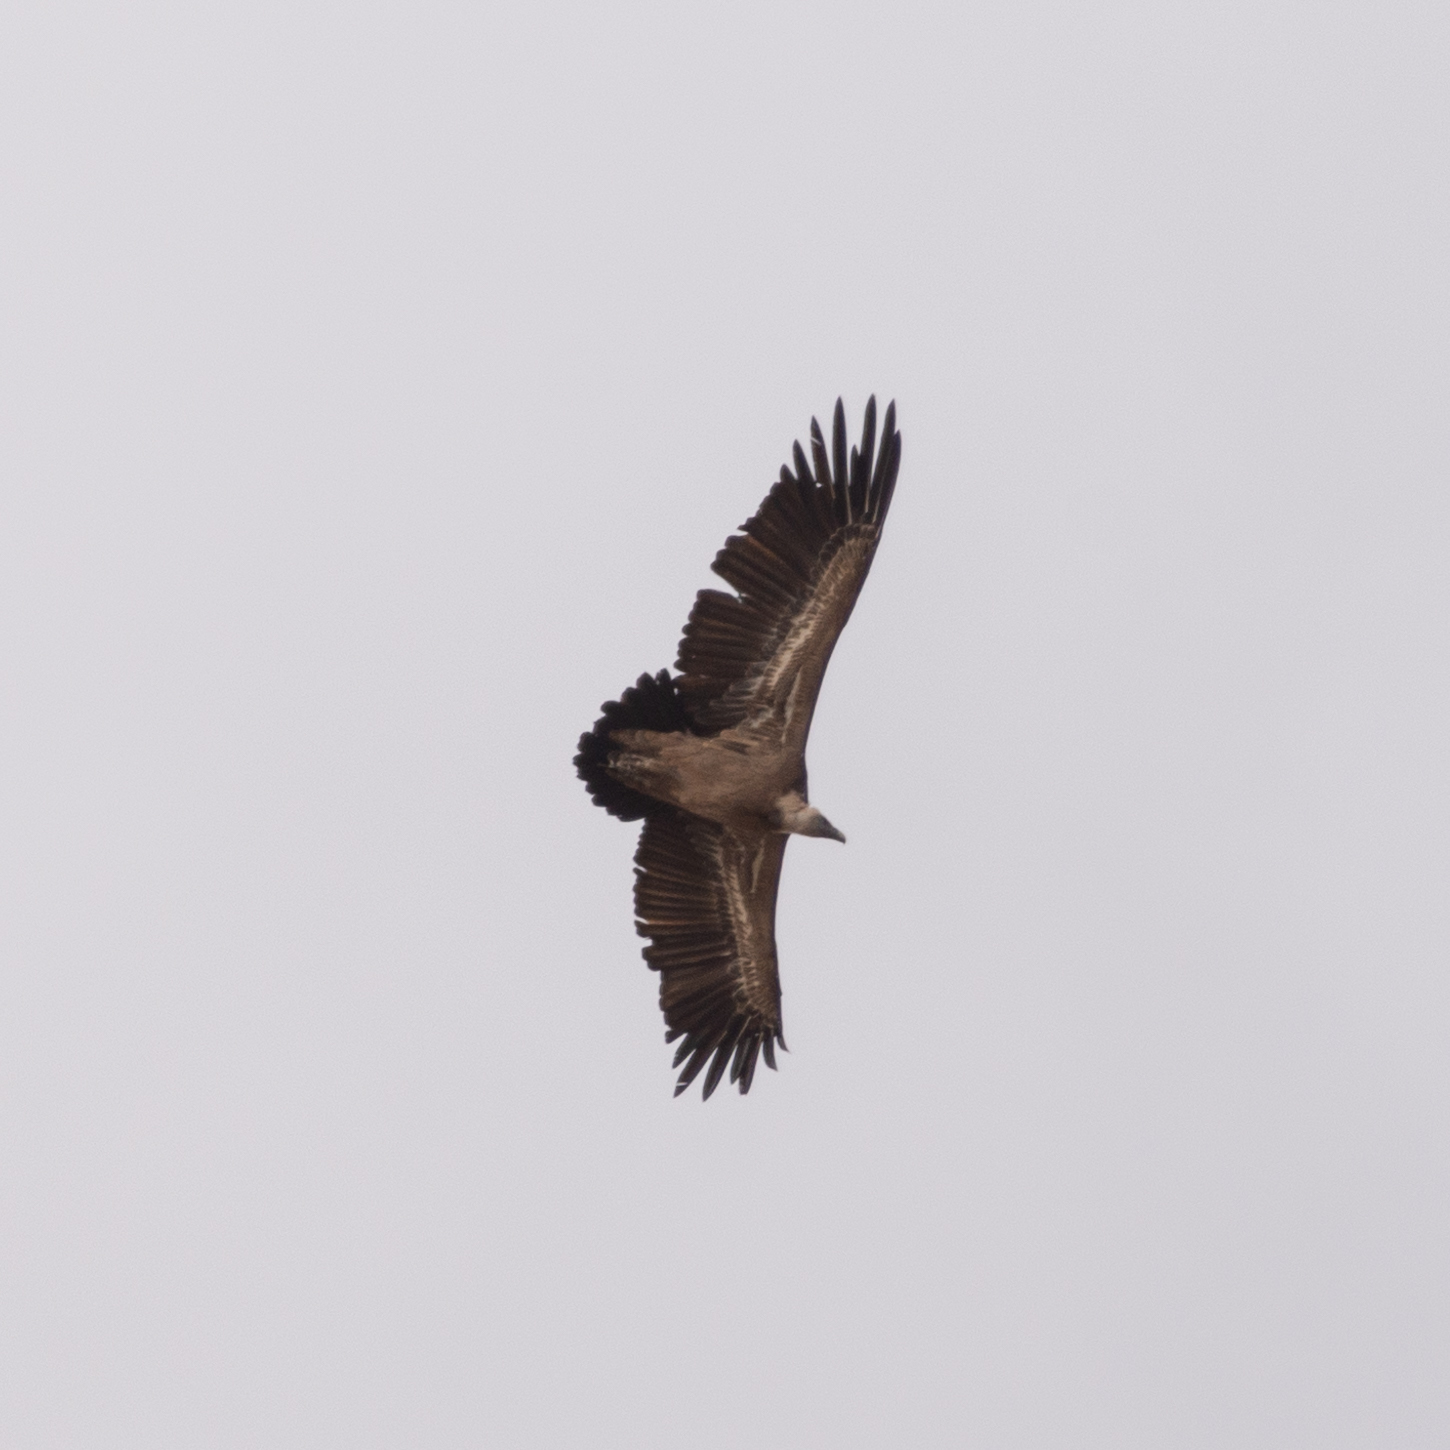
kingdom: Animalia
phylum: Chordata
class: Aves
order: Accipitriformes
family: Accipitridae
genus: Gyps
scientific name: Gyps fulvus
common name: Griffon vulture
